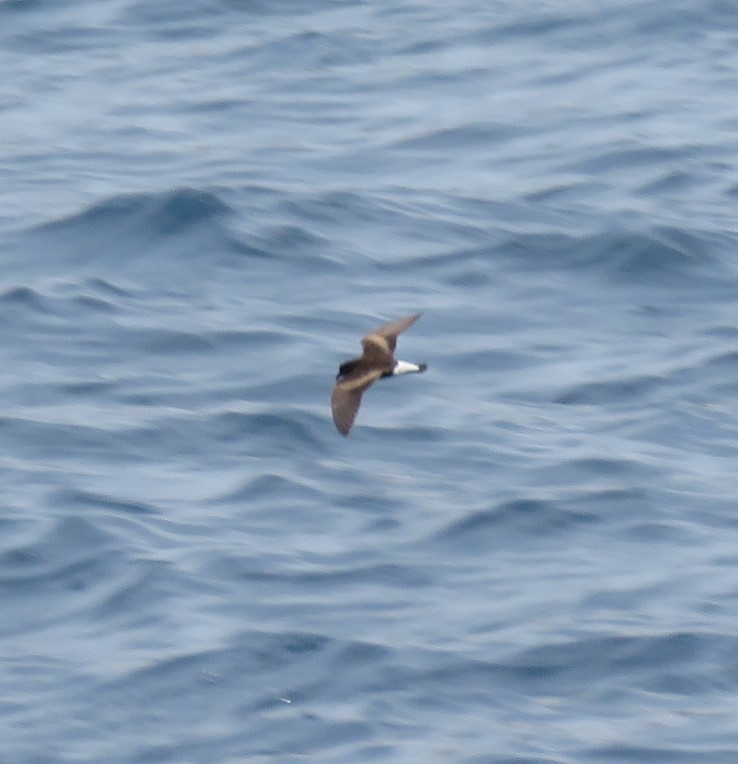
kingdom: Animalia
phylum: Chordata
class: Aves
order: Procellariiformes
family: Hydrobatidae
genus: Oceanodroma
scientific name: Oceanodroma tethys
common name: Wedge-rumped storm-petrel
